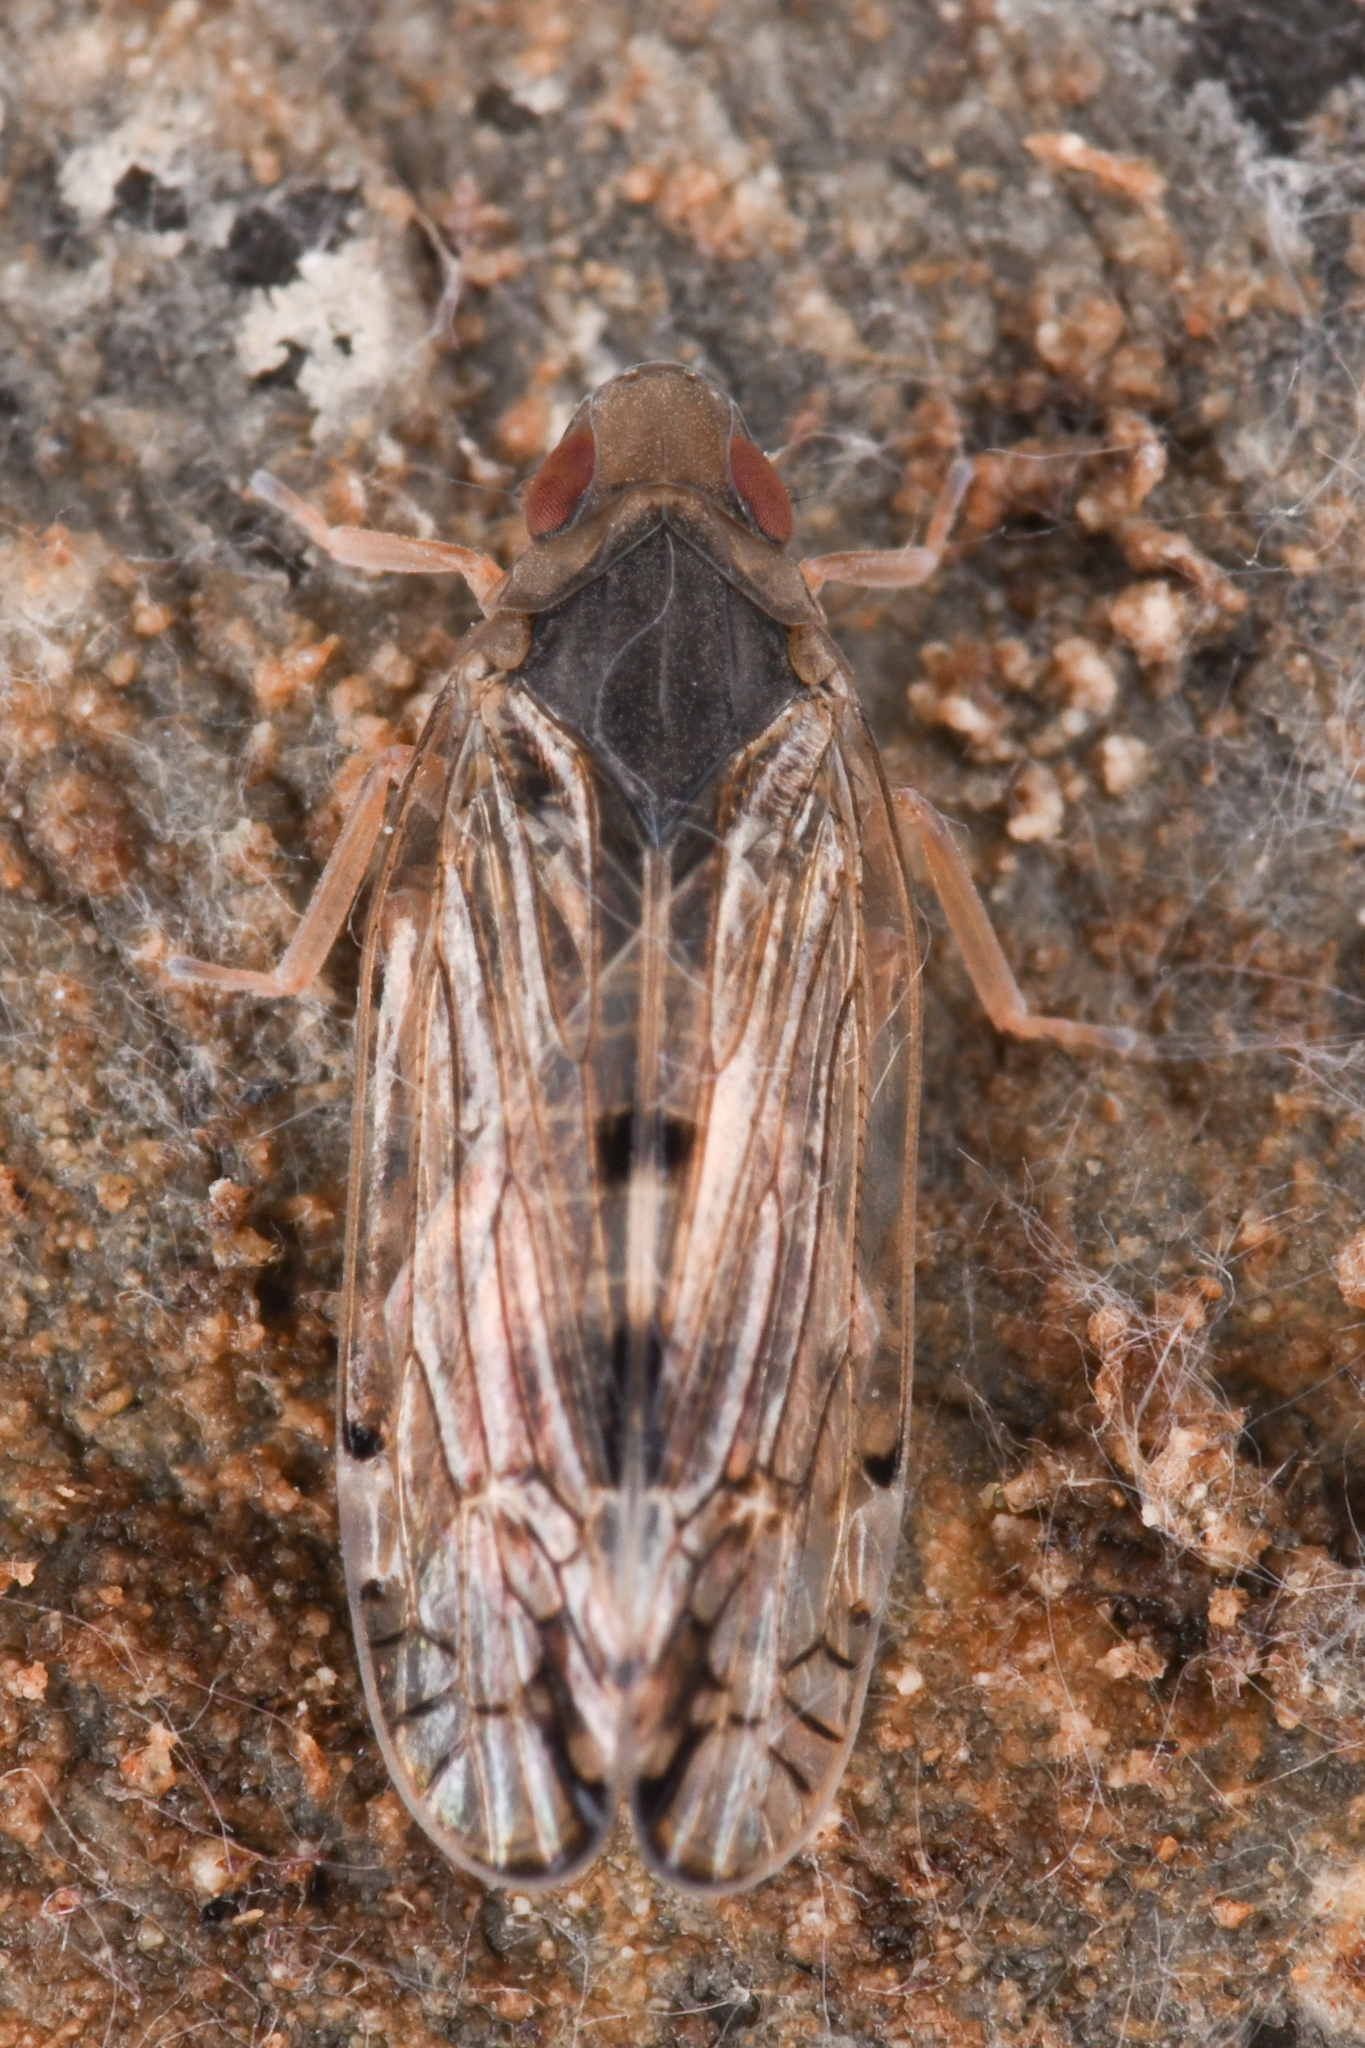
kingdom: Animalia
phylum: Arthropoda
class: Insecta
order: Hemiptera
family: Cixiidae
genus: Platycixius
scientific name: Platycixius calvus
